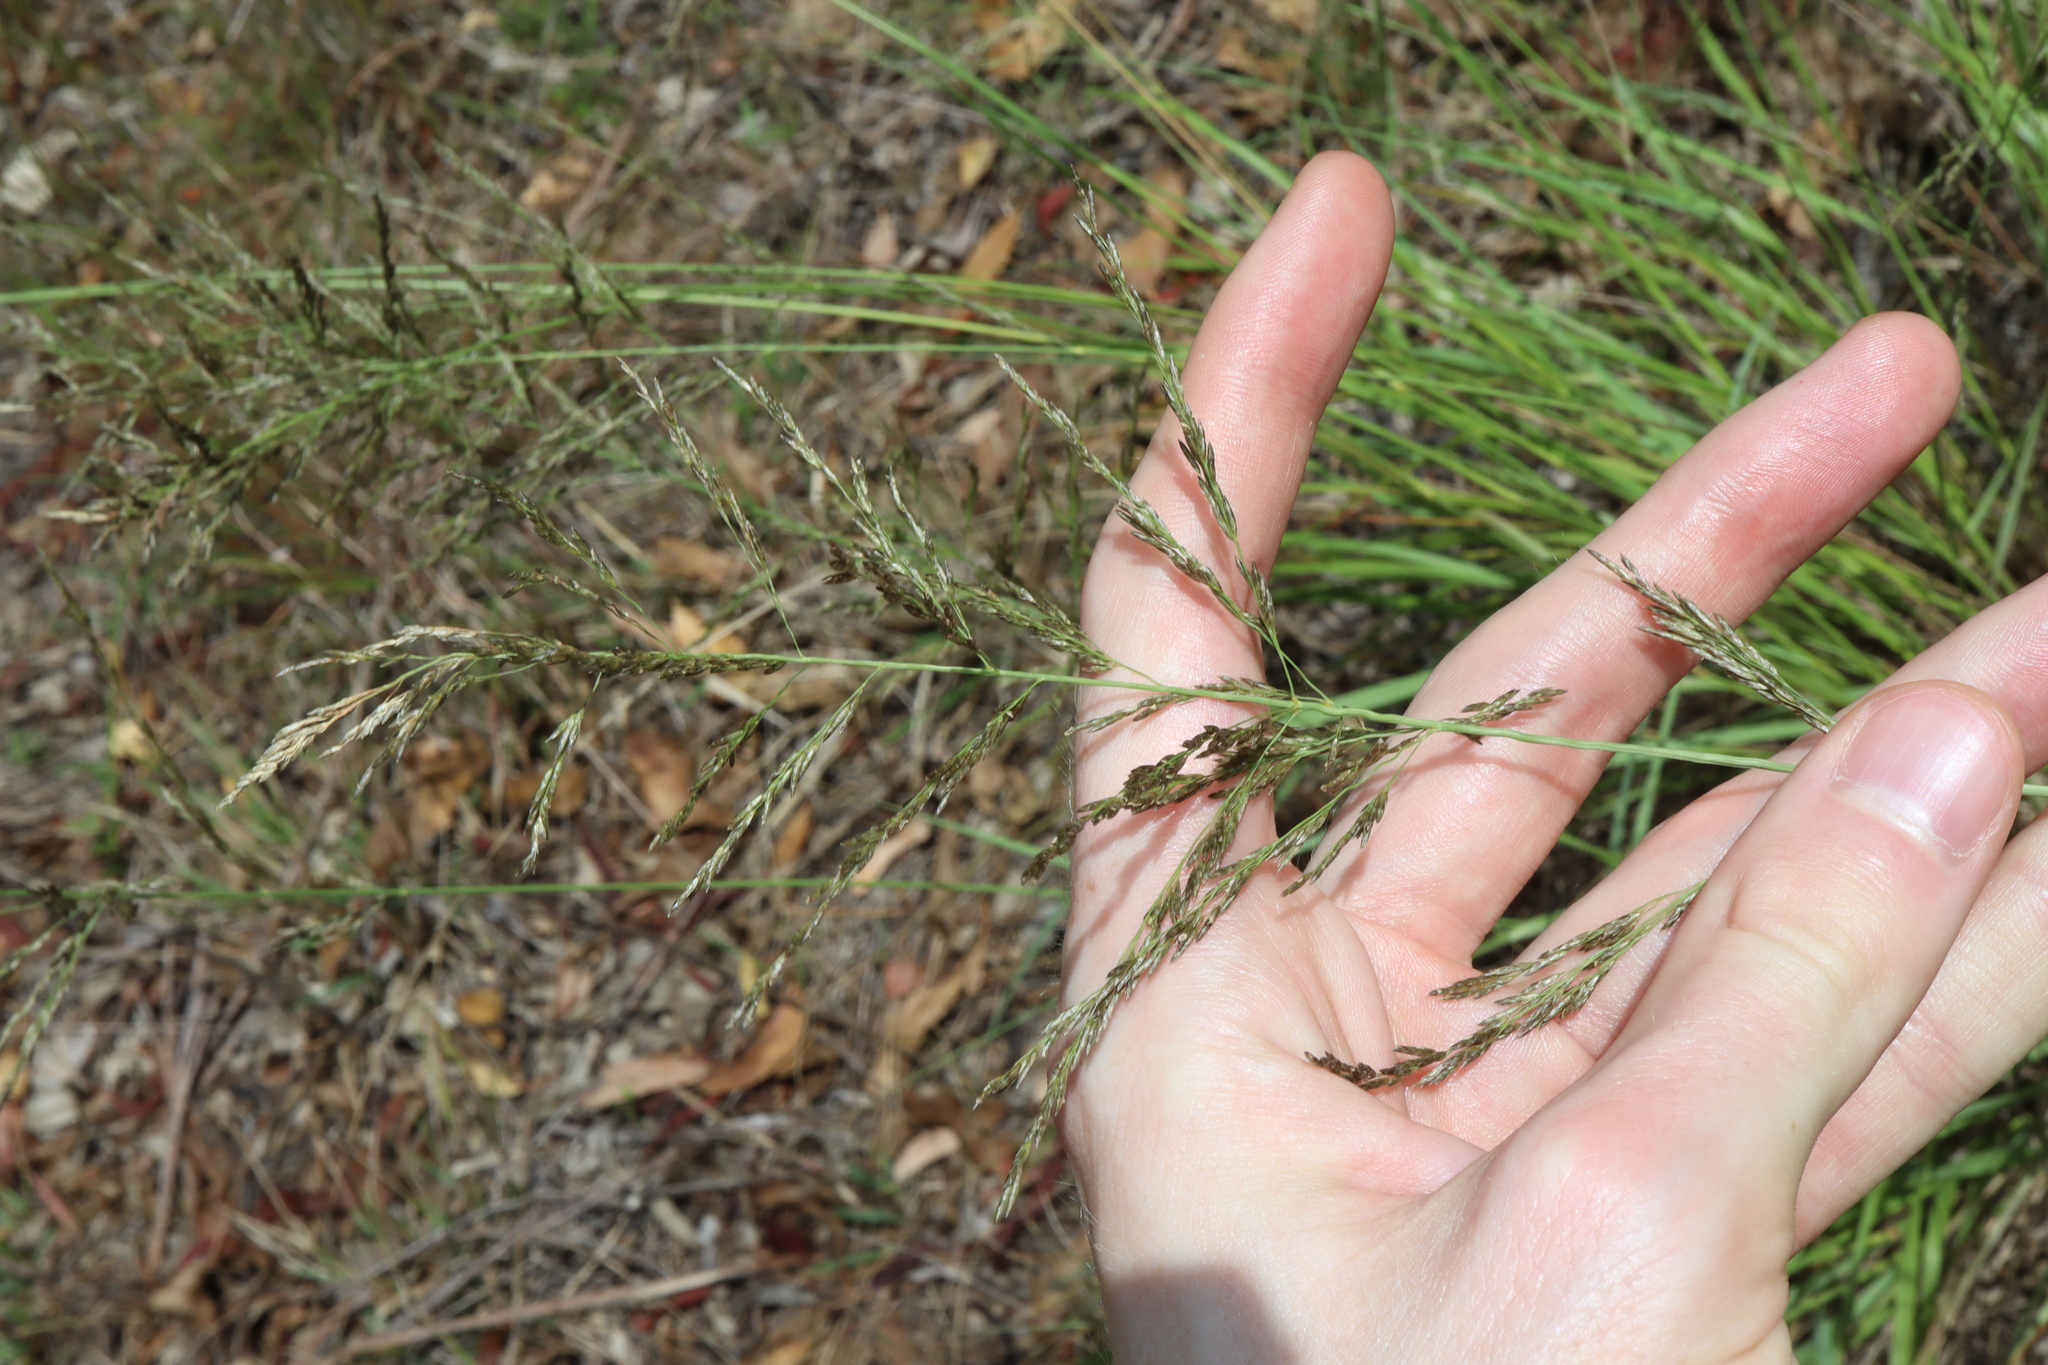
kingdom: Plantae
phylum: Tracheophyta
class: Liliopsida
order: Poales
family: Poaceae
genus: Eragrostis
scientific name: Eragrostis curvula
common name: African love-grass
